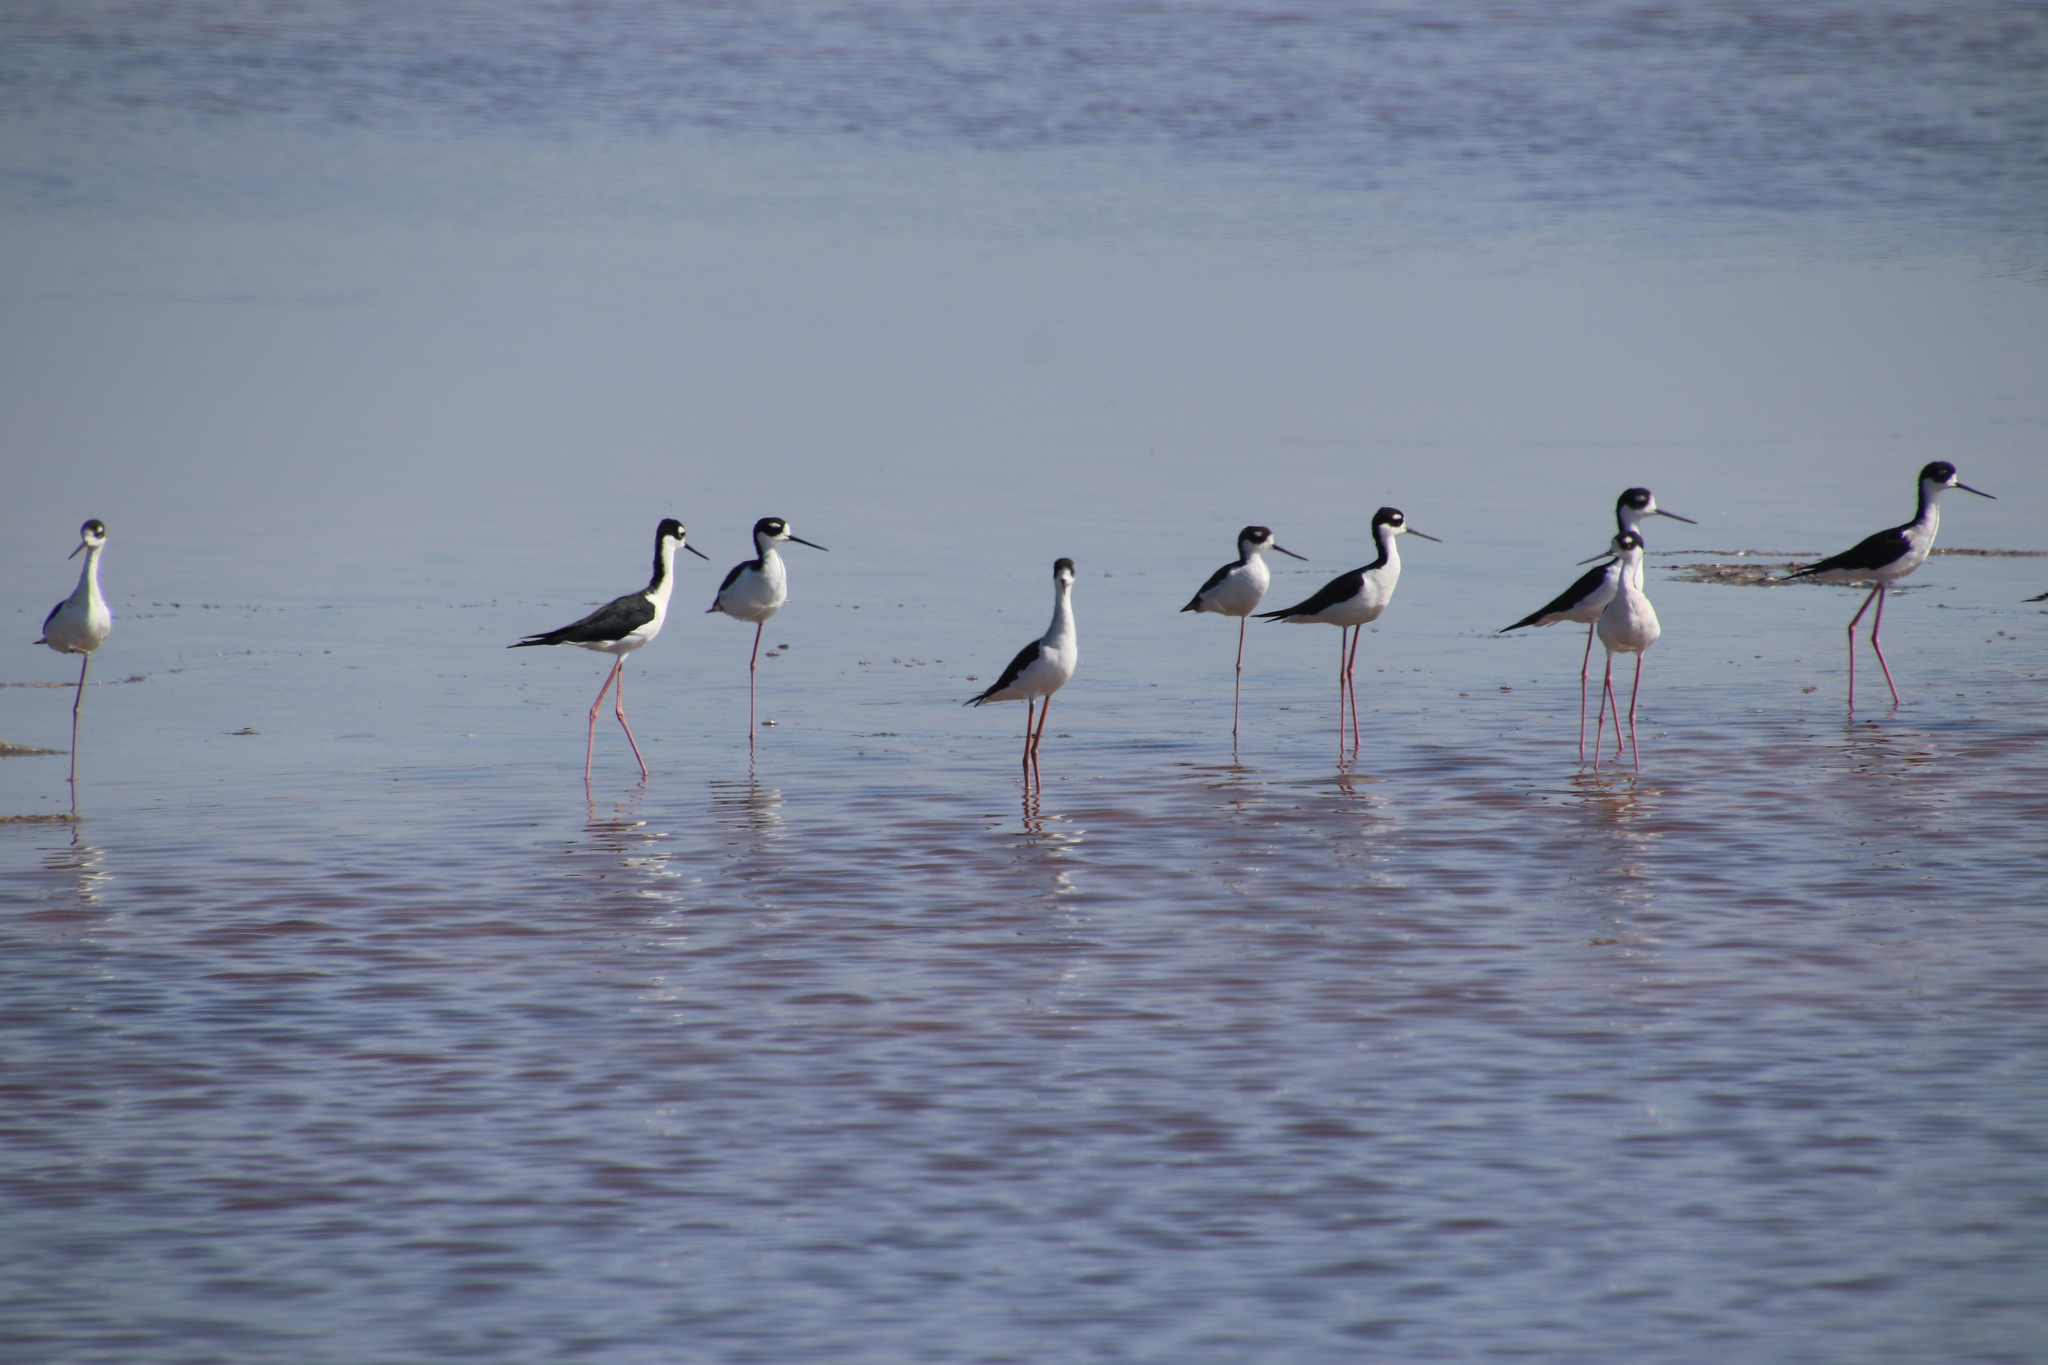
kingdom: Animalia
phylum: Chordata
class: Aves
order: Charadriiformes
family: Recurvirostridae
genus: Himantopus
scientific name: Himantopus mexicanus
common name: Black-necked stilt
